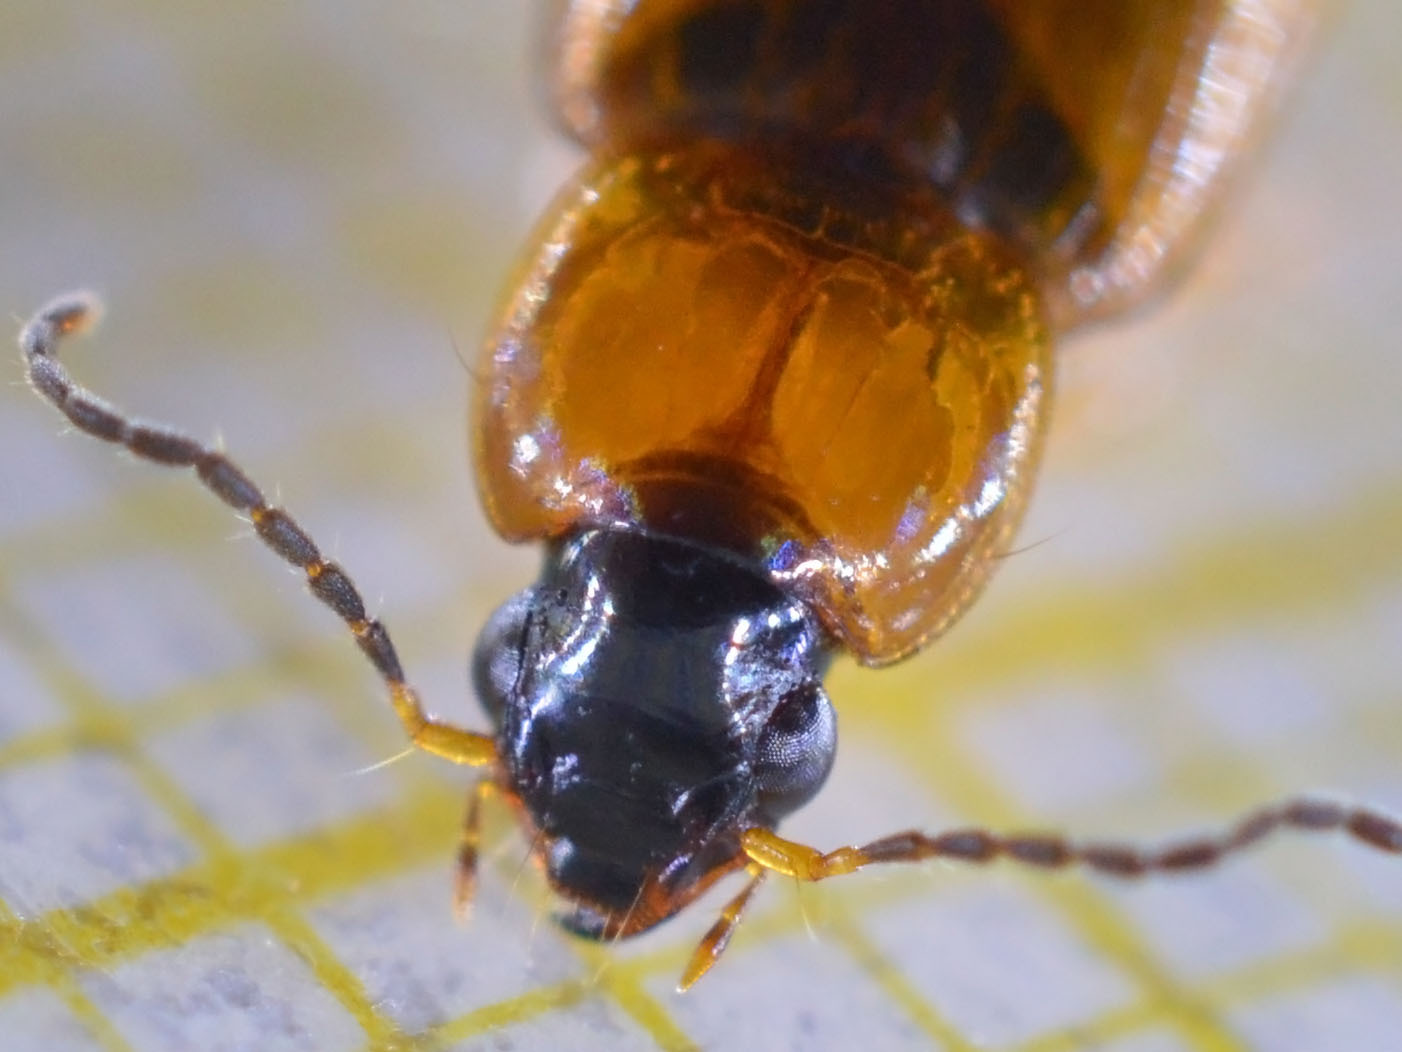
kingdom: Animalia
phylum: Arthropoda
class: Insecta
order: Coleoptera
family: Carabidae
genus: Stenolophus
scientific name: Stenolophus teutonus
